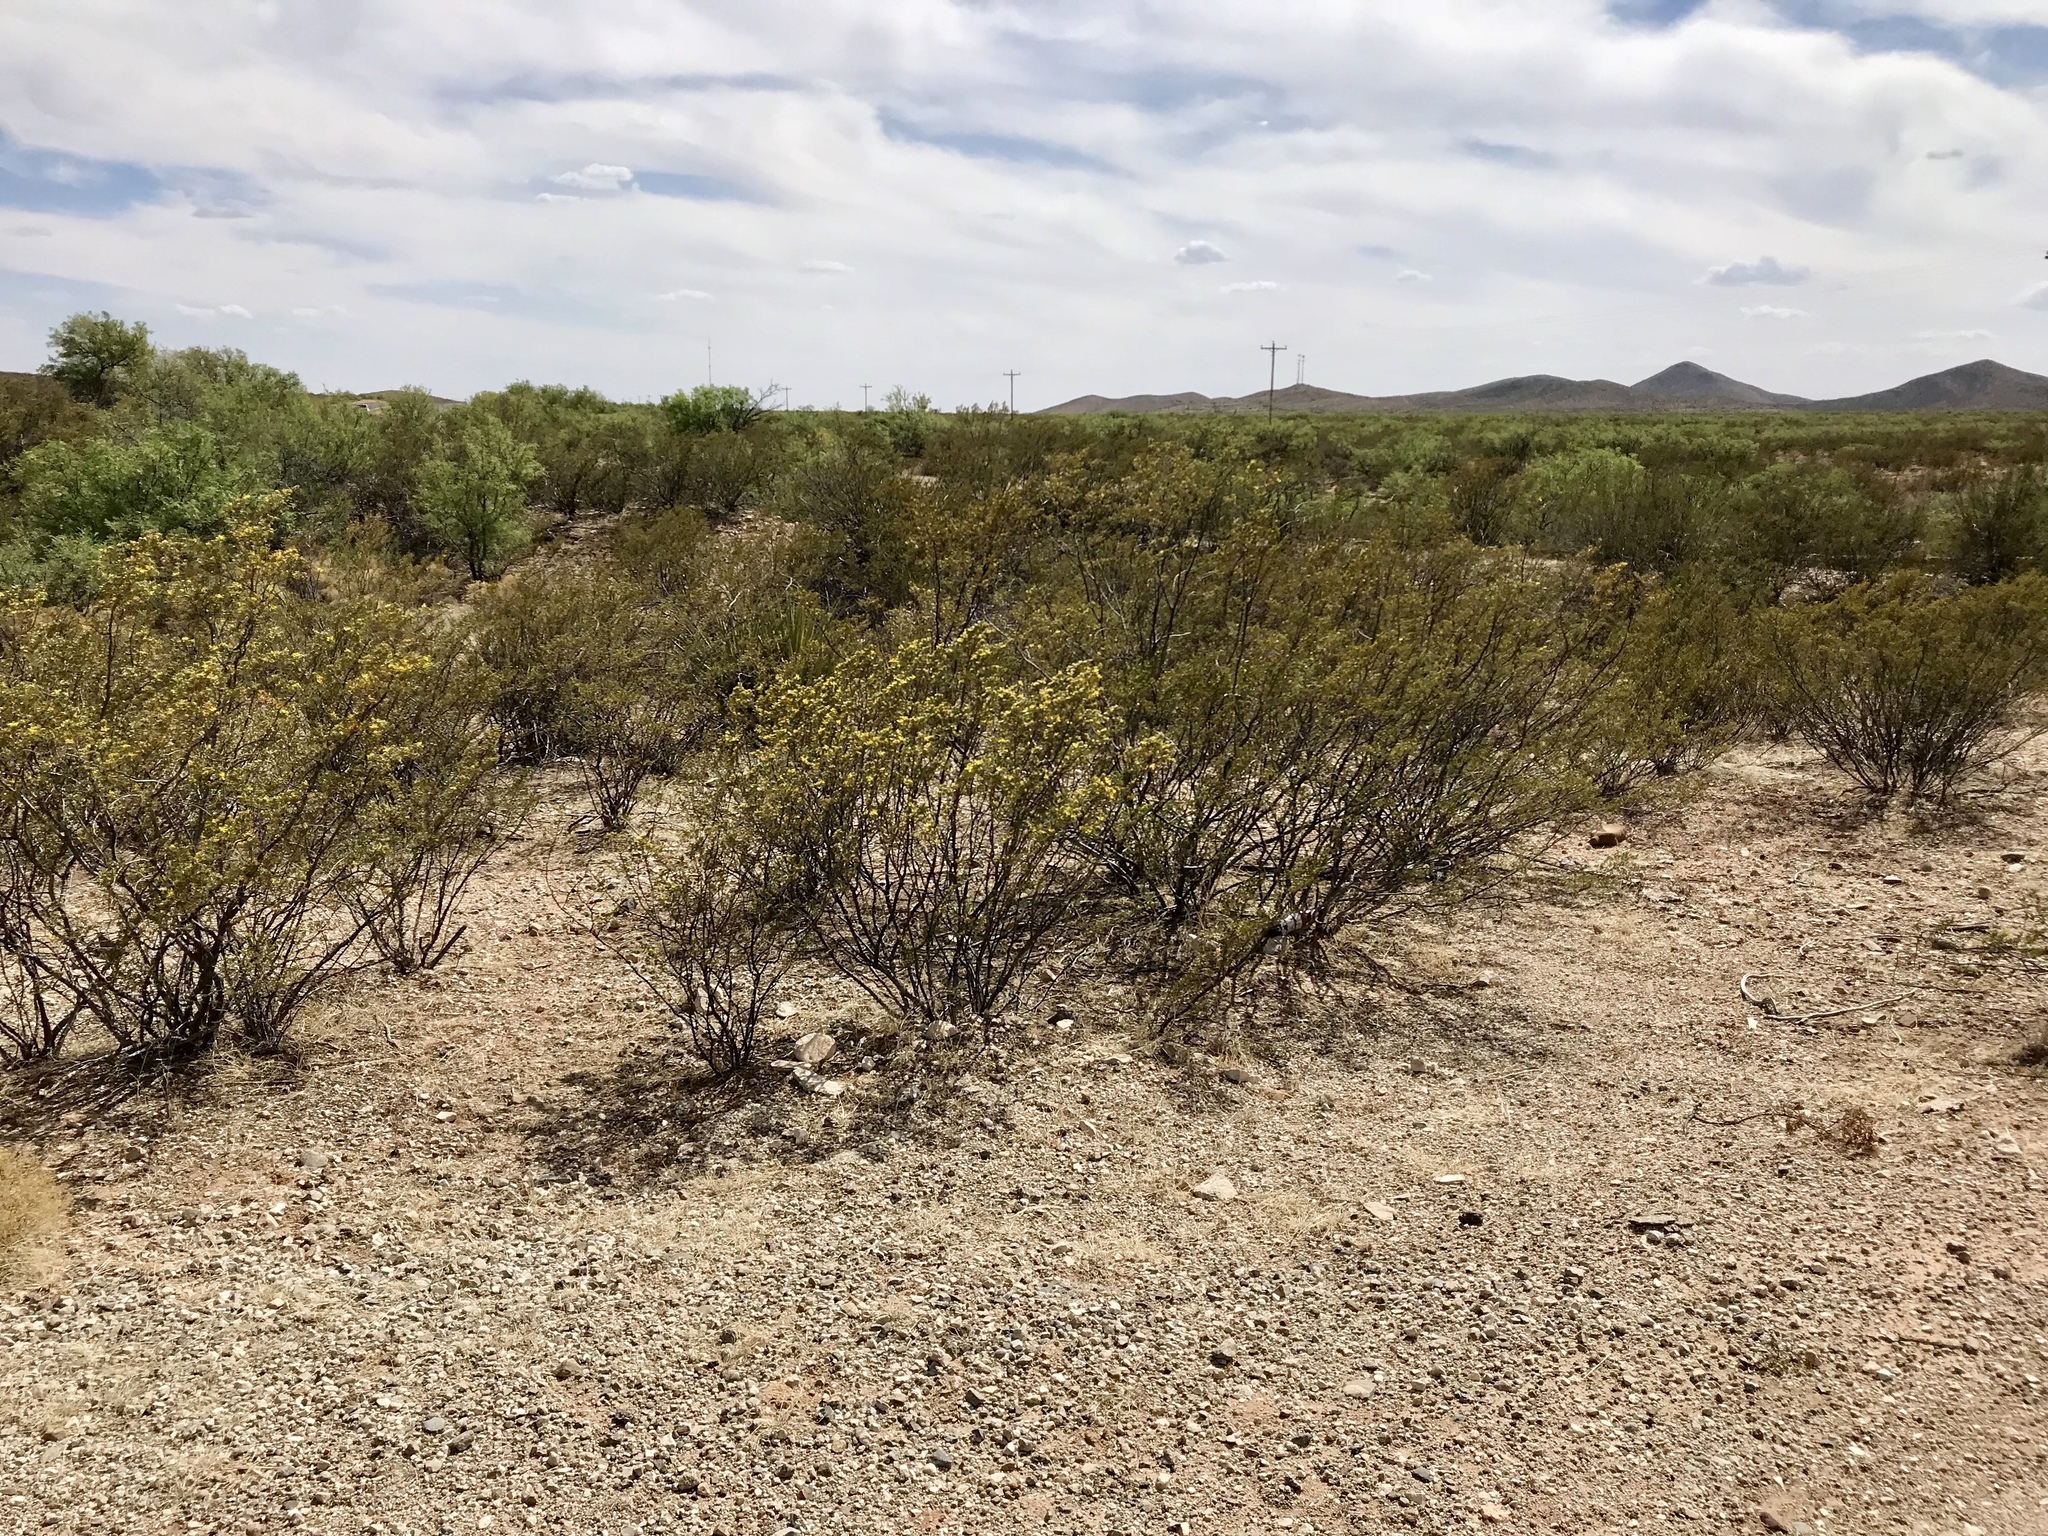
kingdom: Plantae
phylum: Tracheophyta
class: Magnoliopsida
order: Zygophyllales
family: Zygophyllaceae
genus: Larrea
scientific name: Larrea tridentata
